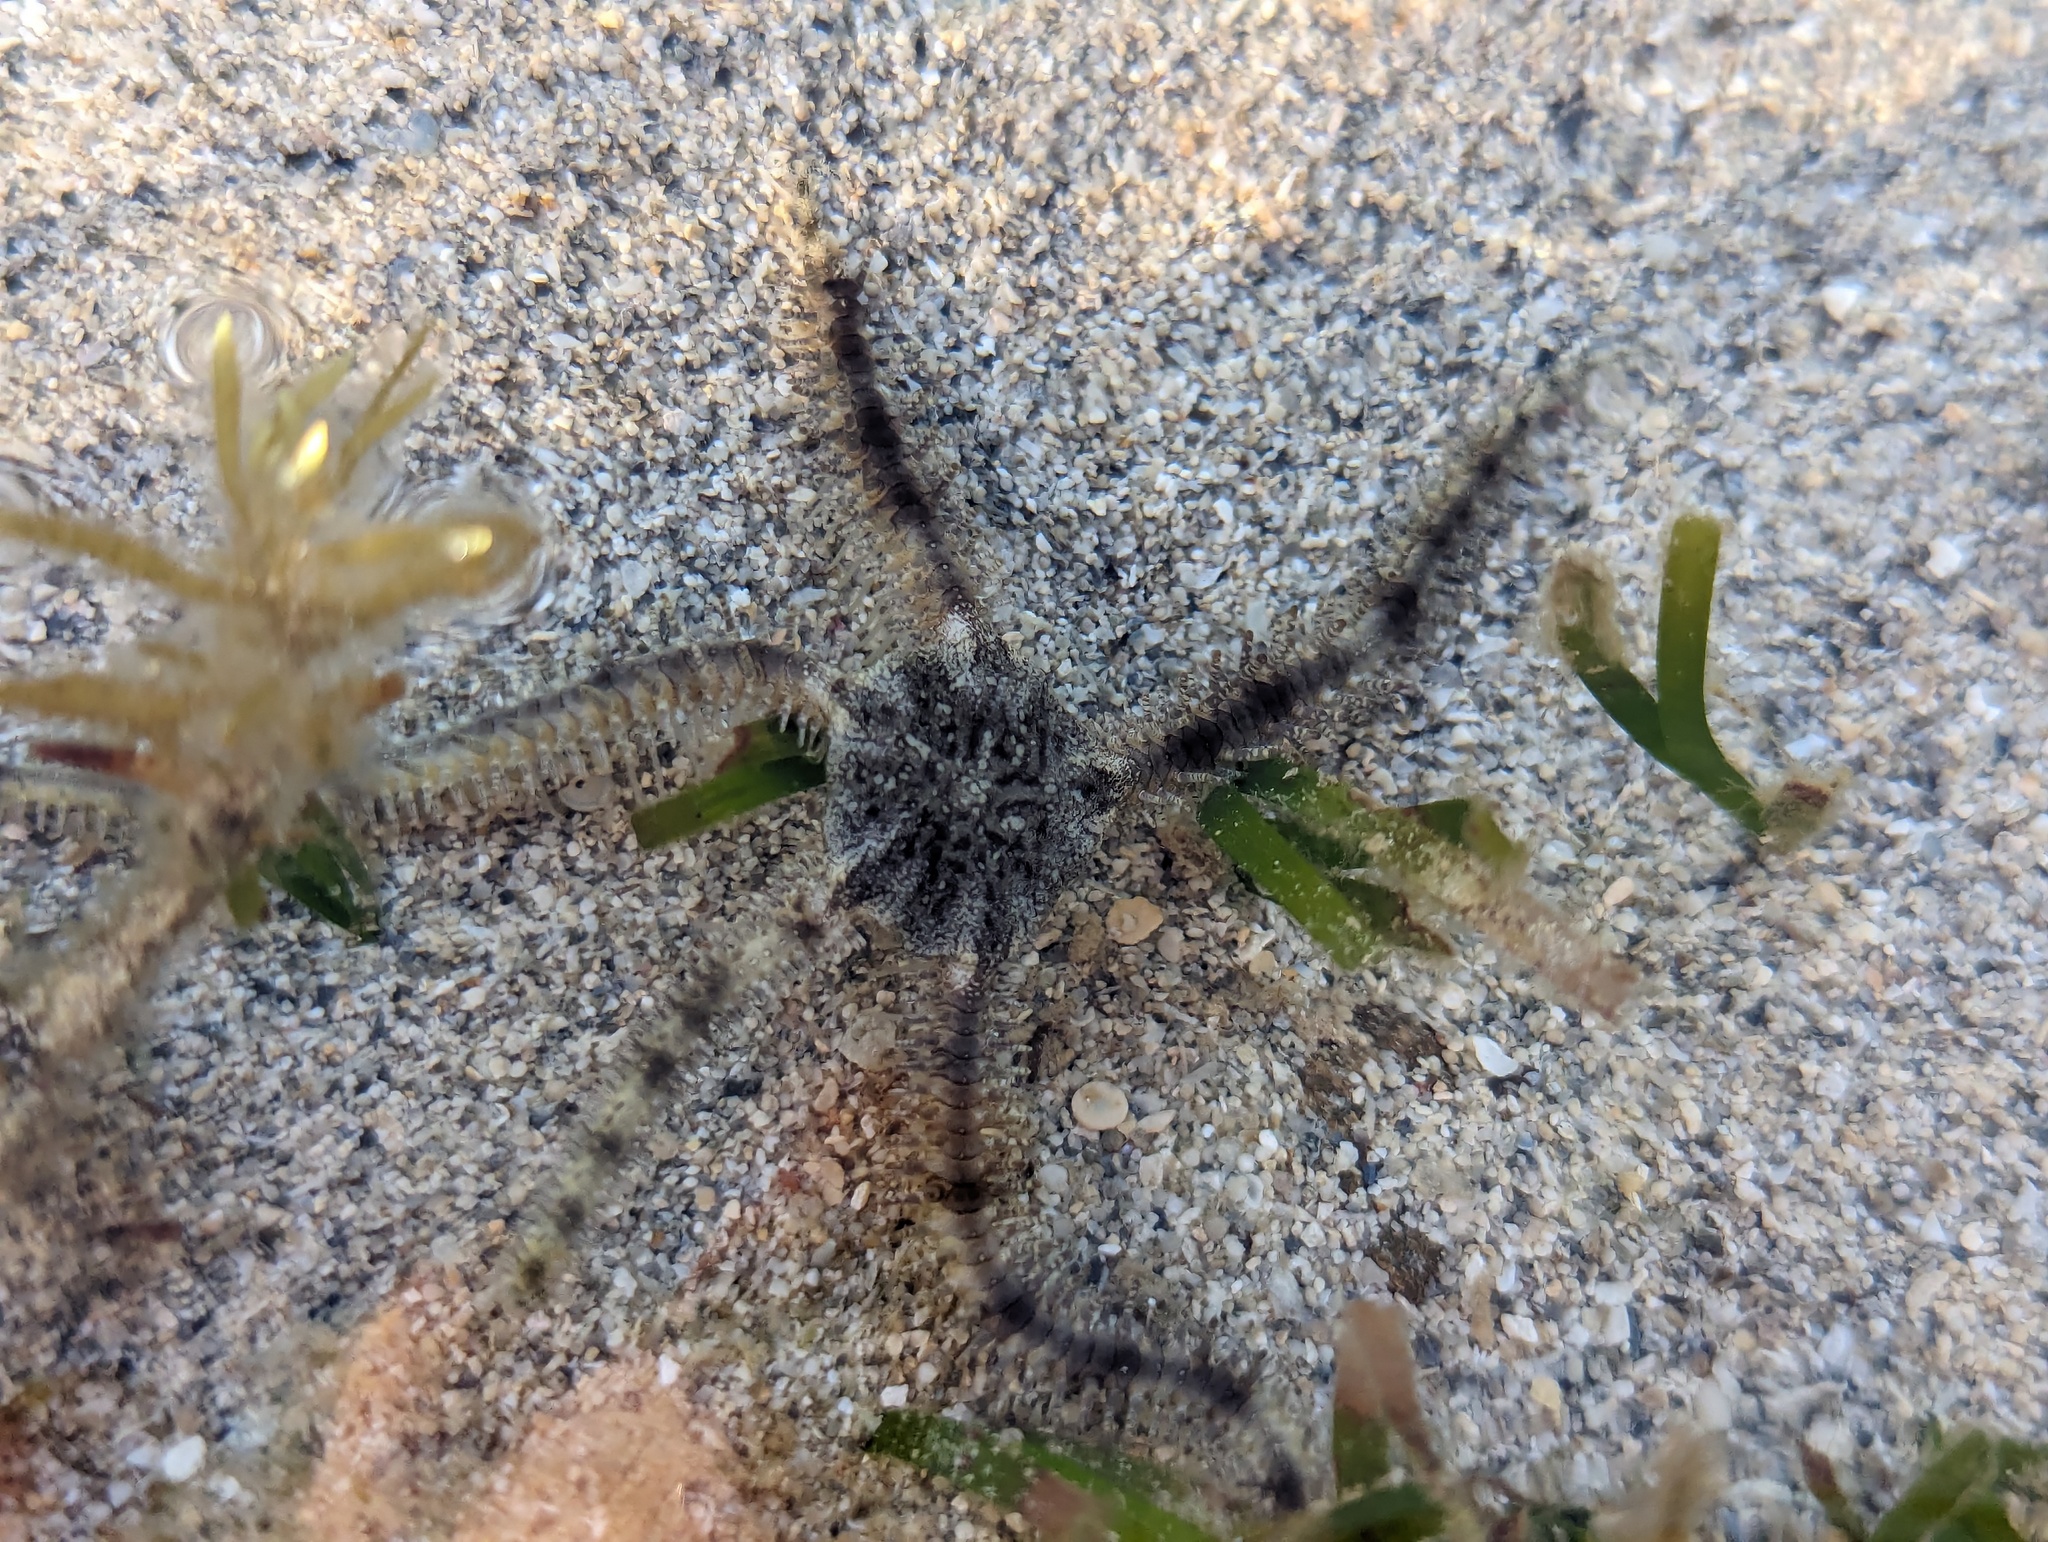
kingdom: Animalia
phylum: Echinodermata
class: Ophiuroidea
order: Ophiacanthida
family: Ophiocomidae
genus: Ophiocoma
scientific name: Ophiocoma scolopendrina
